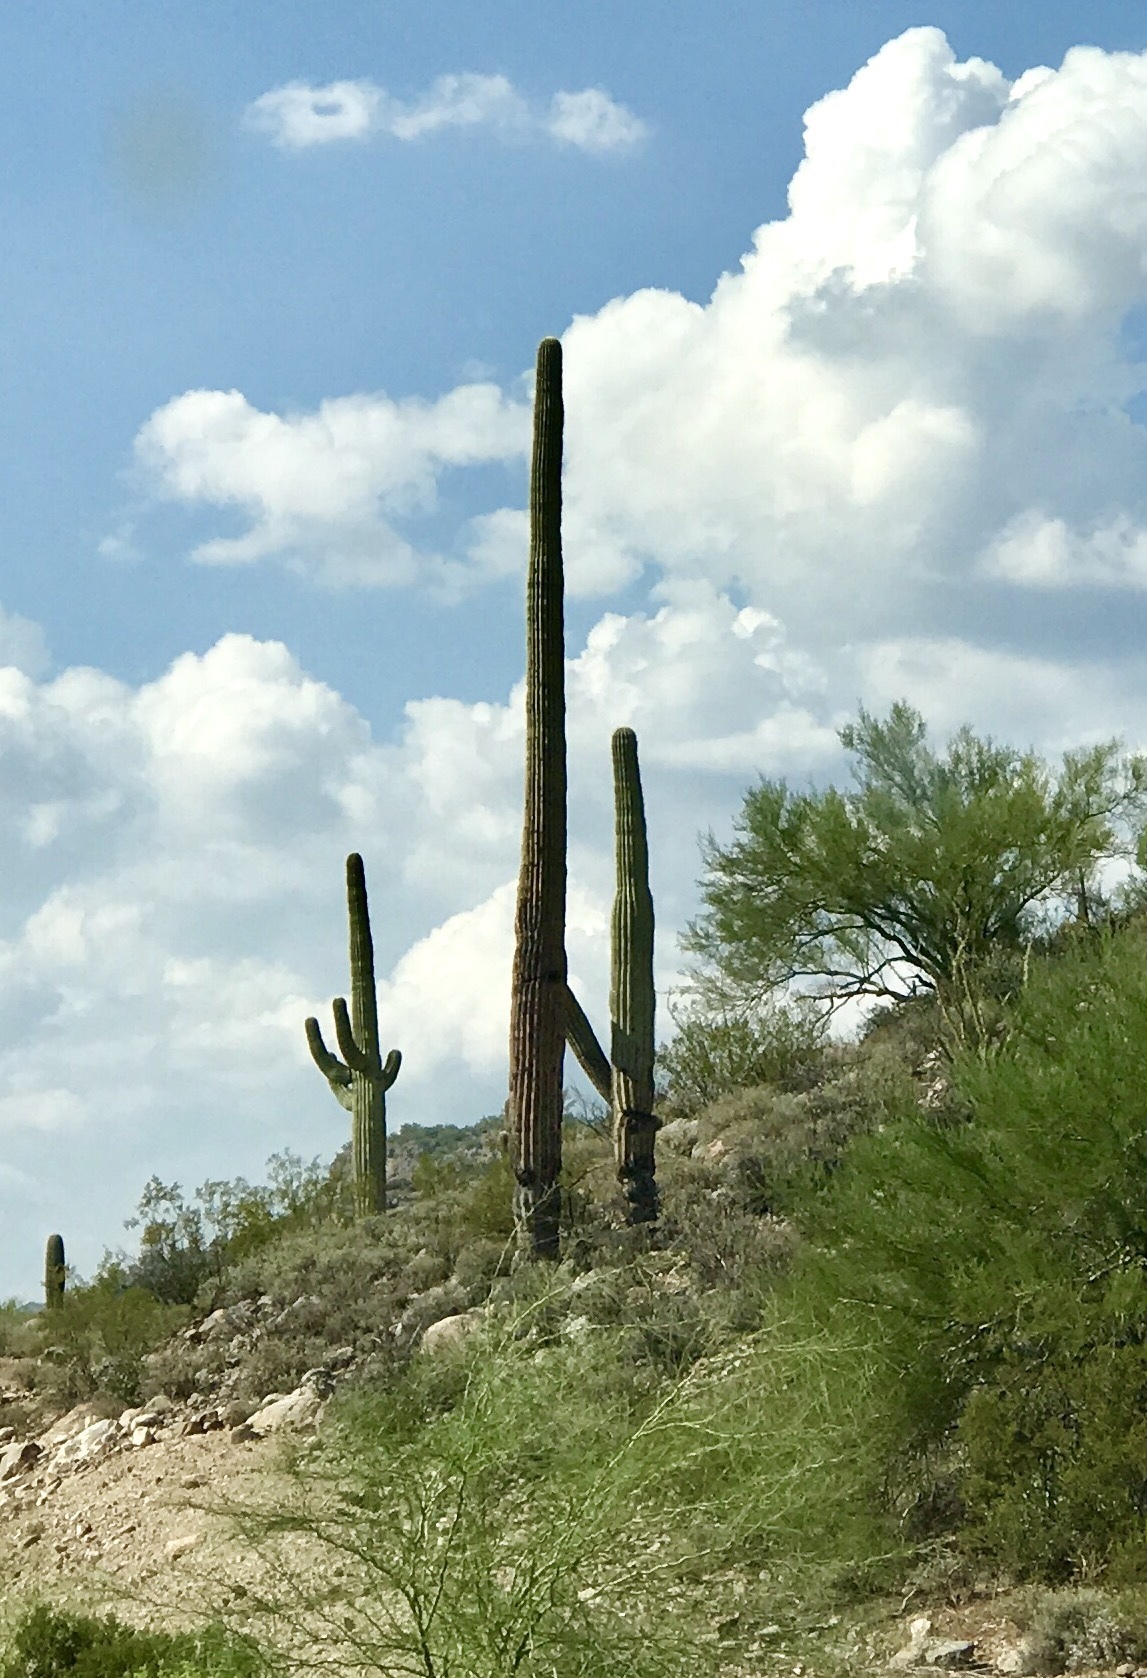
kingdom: Plantae
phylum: Tracheophyta
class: Magnoliopsida
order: Caryophyllales
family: Cactaceae
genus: Carnegiea
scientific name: Carnegiea gigantea
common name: Saguaro
